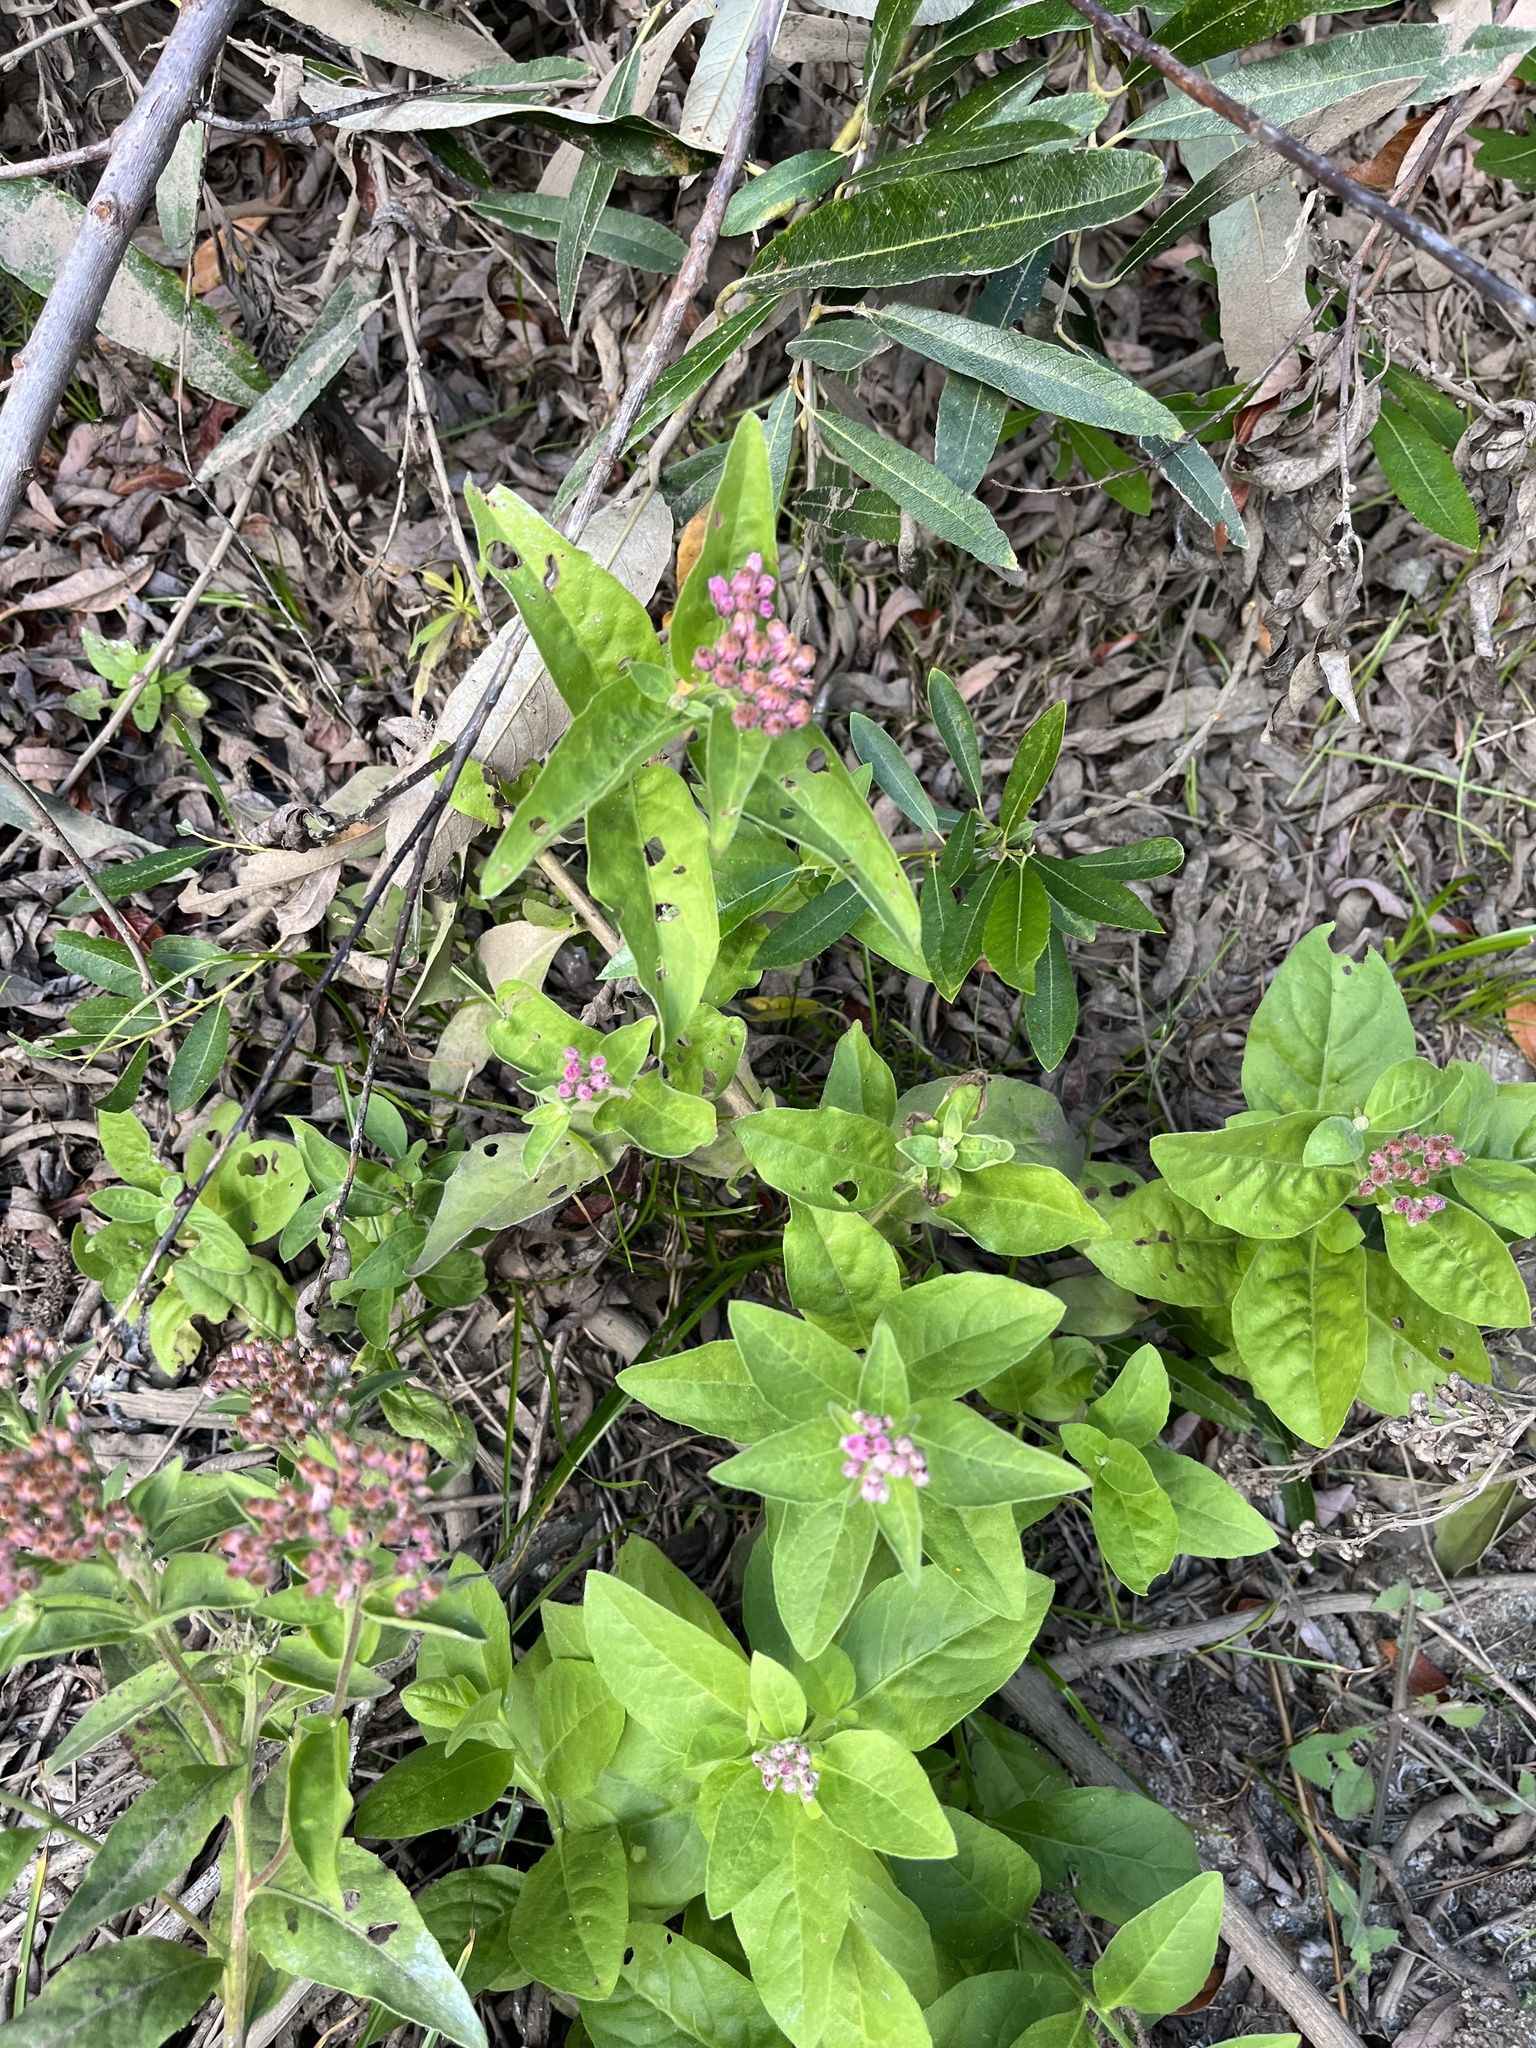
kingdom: Plantae
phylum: Tracheophyta
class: Magnoliopsida
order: Asterales
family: Asteraceae
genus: Pluchea
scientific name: Pluchea odorata
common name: Saltmarsh fleabane
